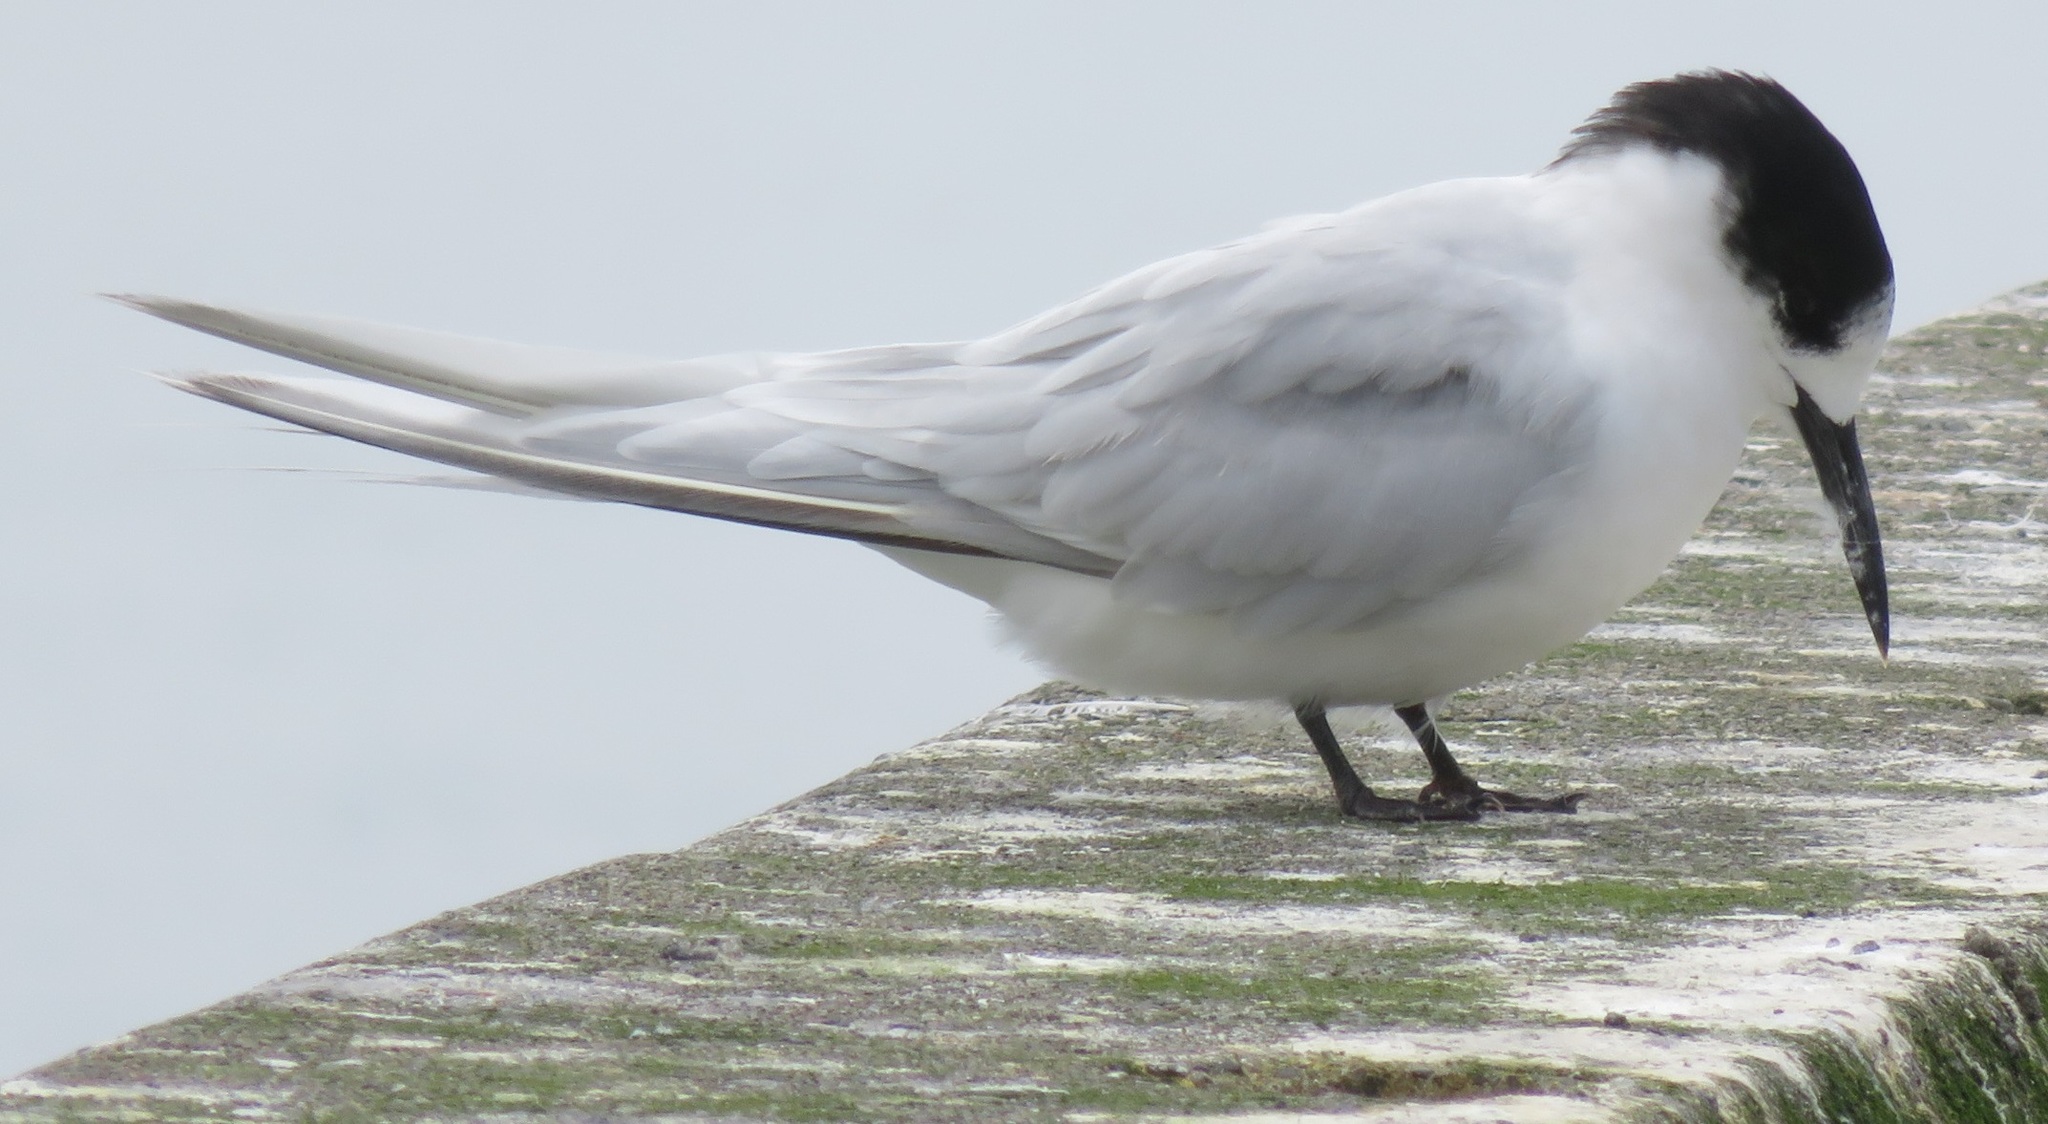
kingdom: Animalia
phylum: Chordata
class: Aves
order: Charadriiformes
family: Laridae
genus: Sterna
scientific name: Sterna striata
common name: White-fronted tern
